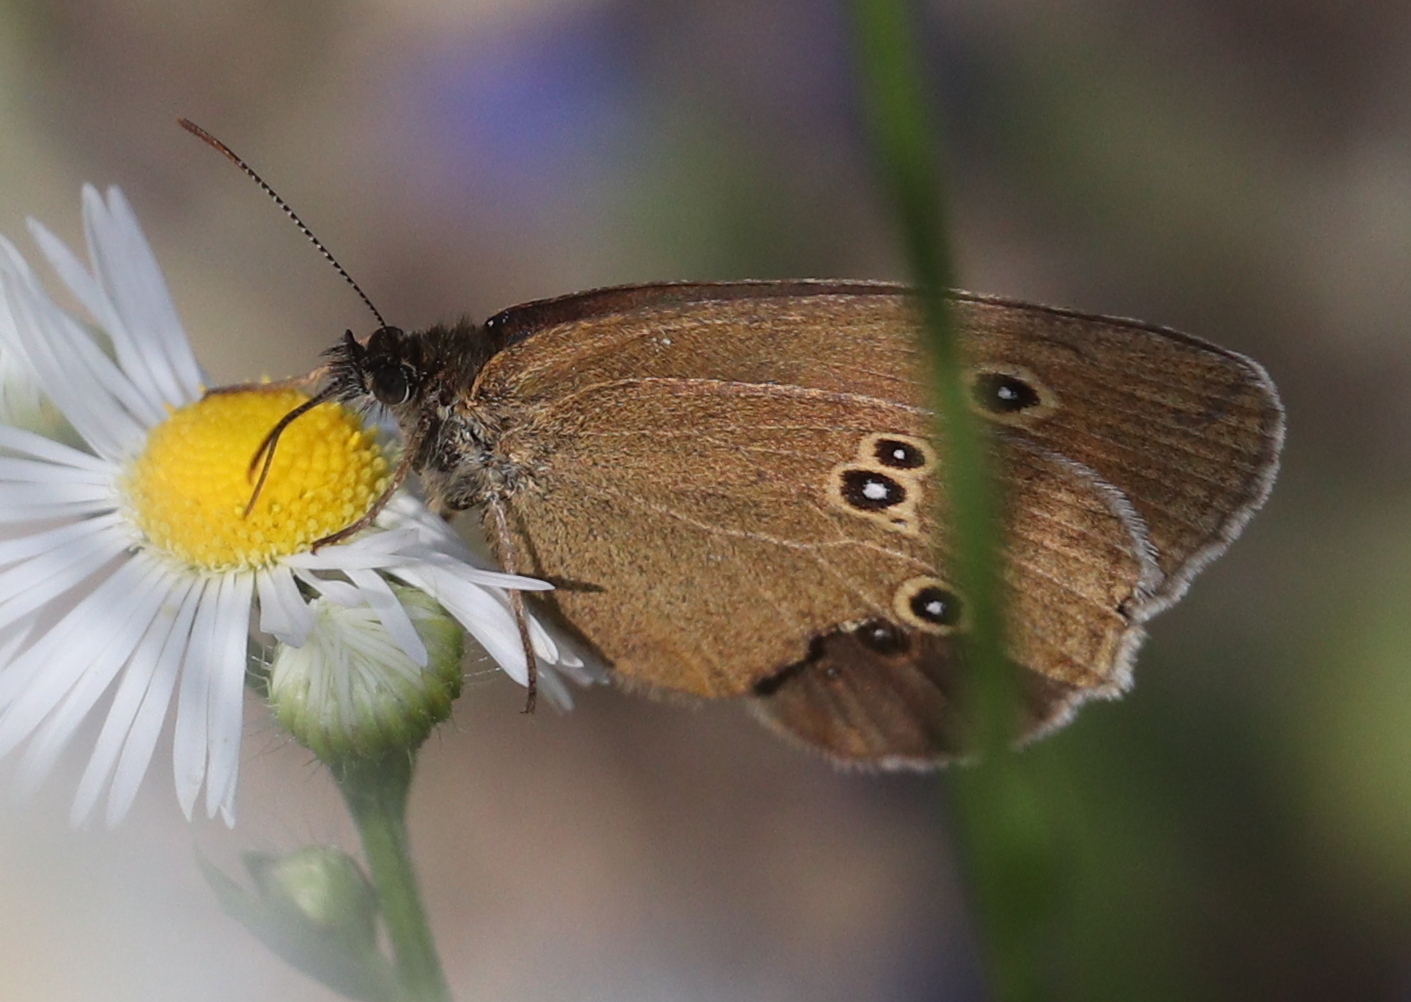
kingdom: Animalia
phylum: Arthropoda
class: Insecta
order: Lepidoptera
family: Nymphalidae
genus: Aphantopus
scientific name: Aphantopus hyperantus
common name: Ringlet
